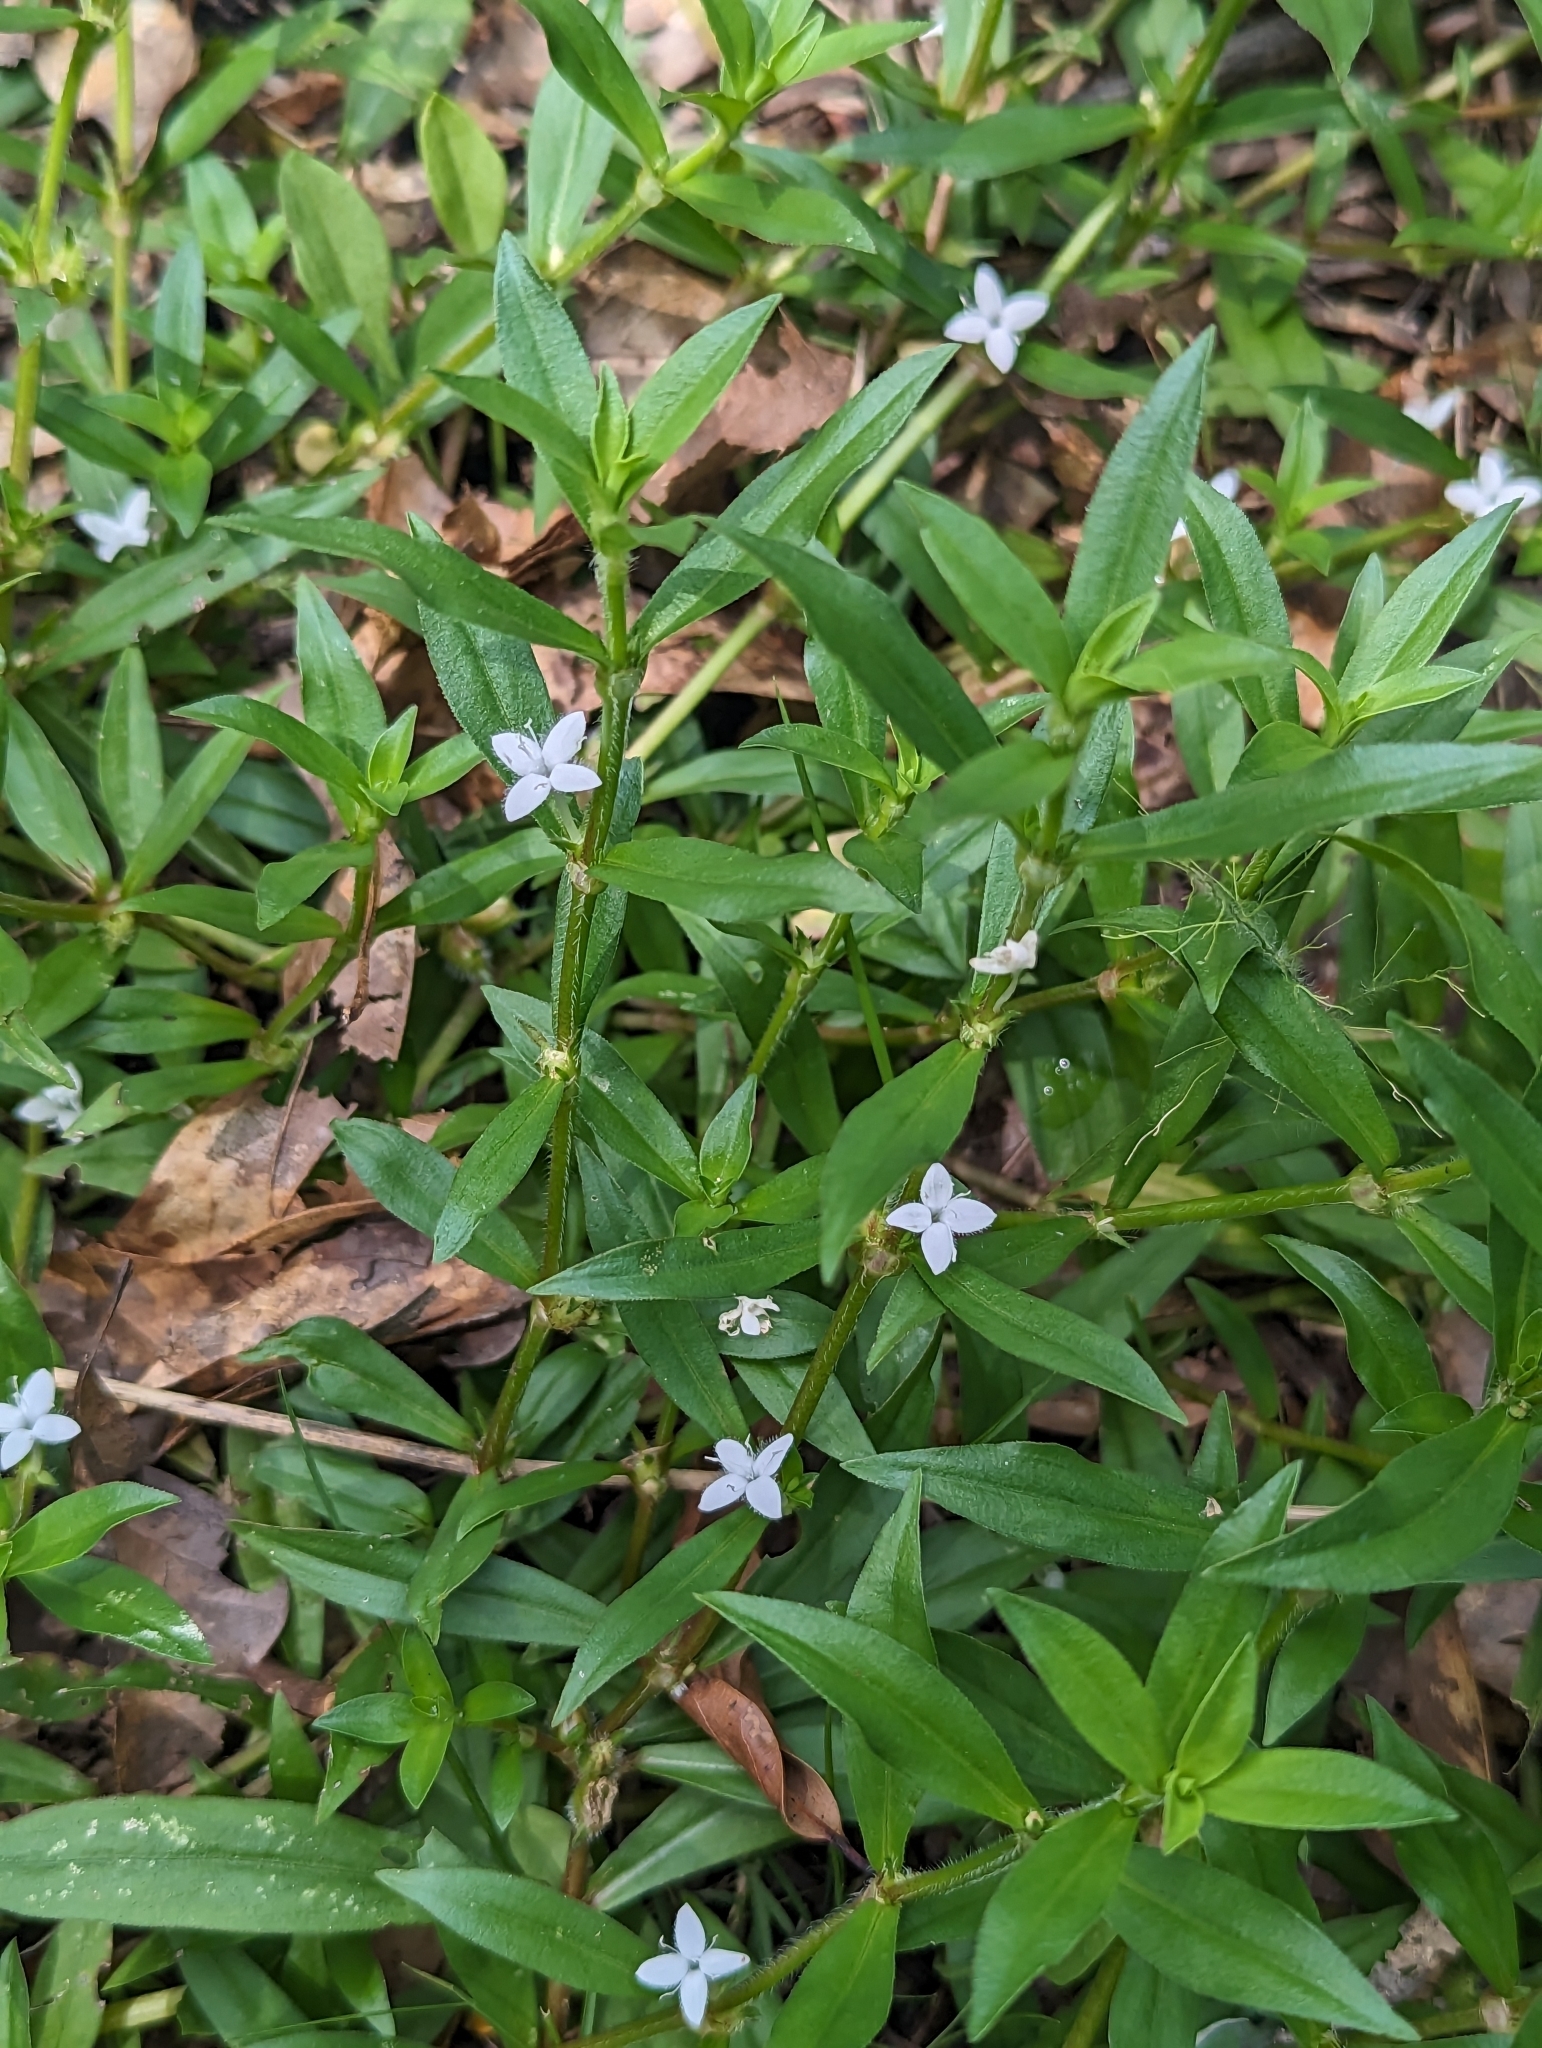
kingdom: Plantae
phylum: Tracheophyta
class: Magnoliopsida
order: Gentianales
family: Rubiaceae
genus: Diodia
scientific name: Diodia virginiana
